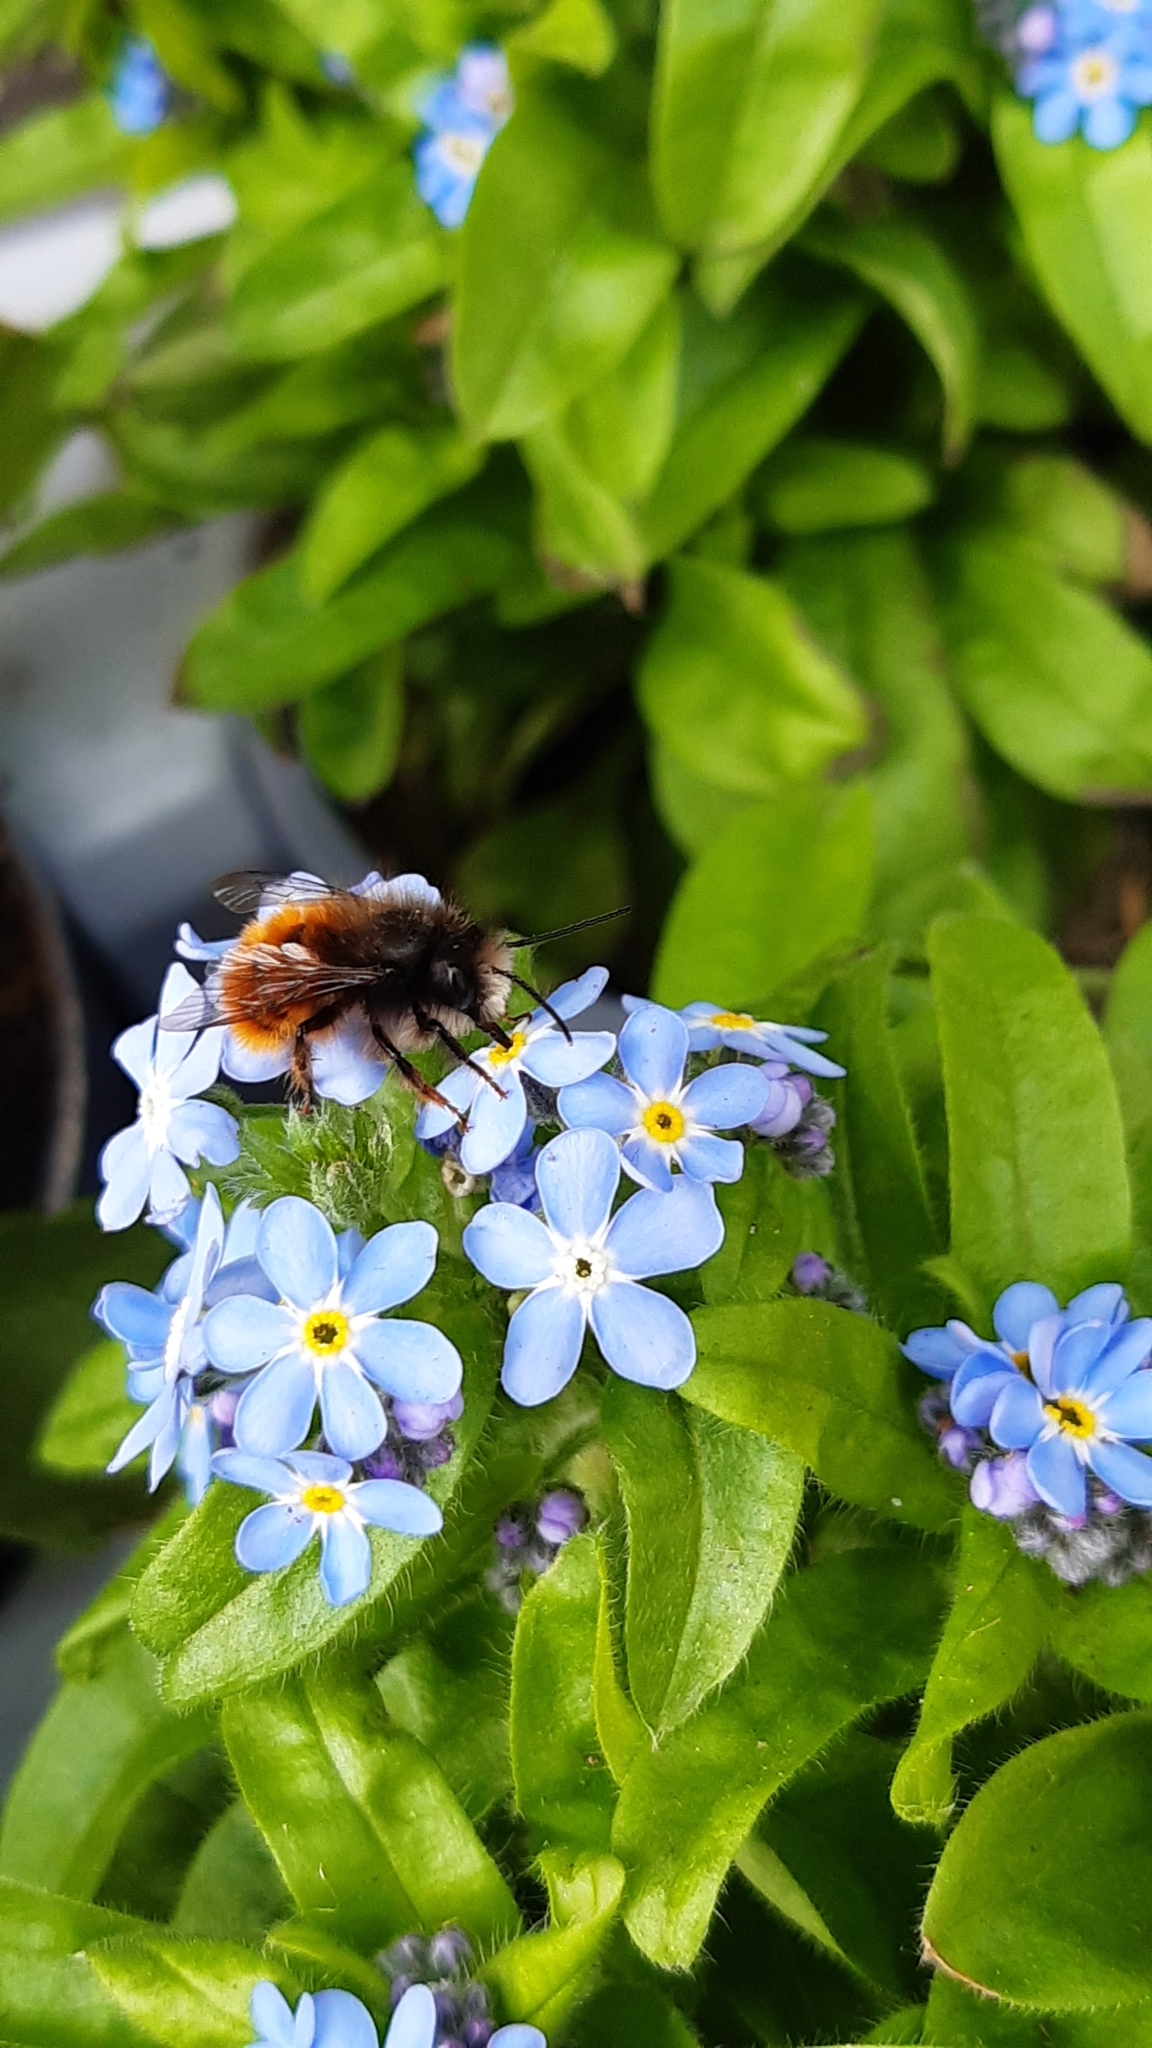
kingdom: Animalia
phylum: Arthropoda
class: Insecta
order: Hymenoptera
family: Megachilidae
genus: Osmia
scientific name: Osmia cornuta
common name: Mason bee
